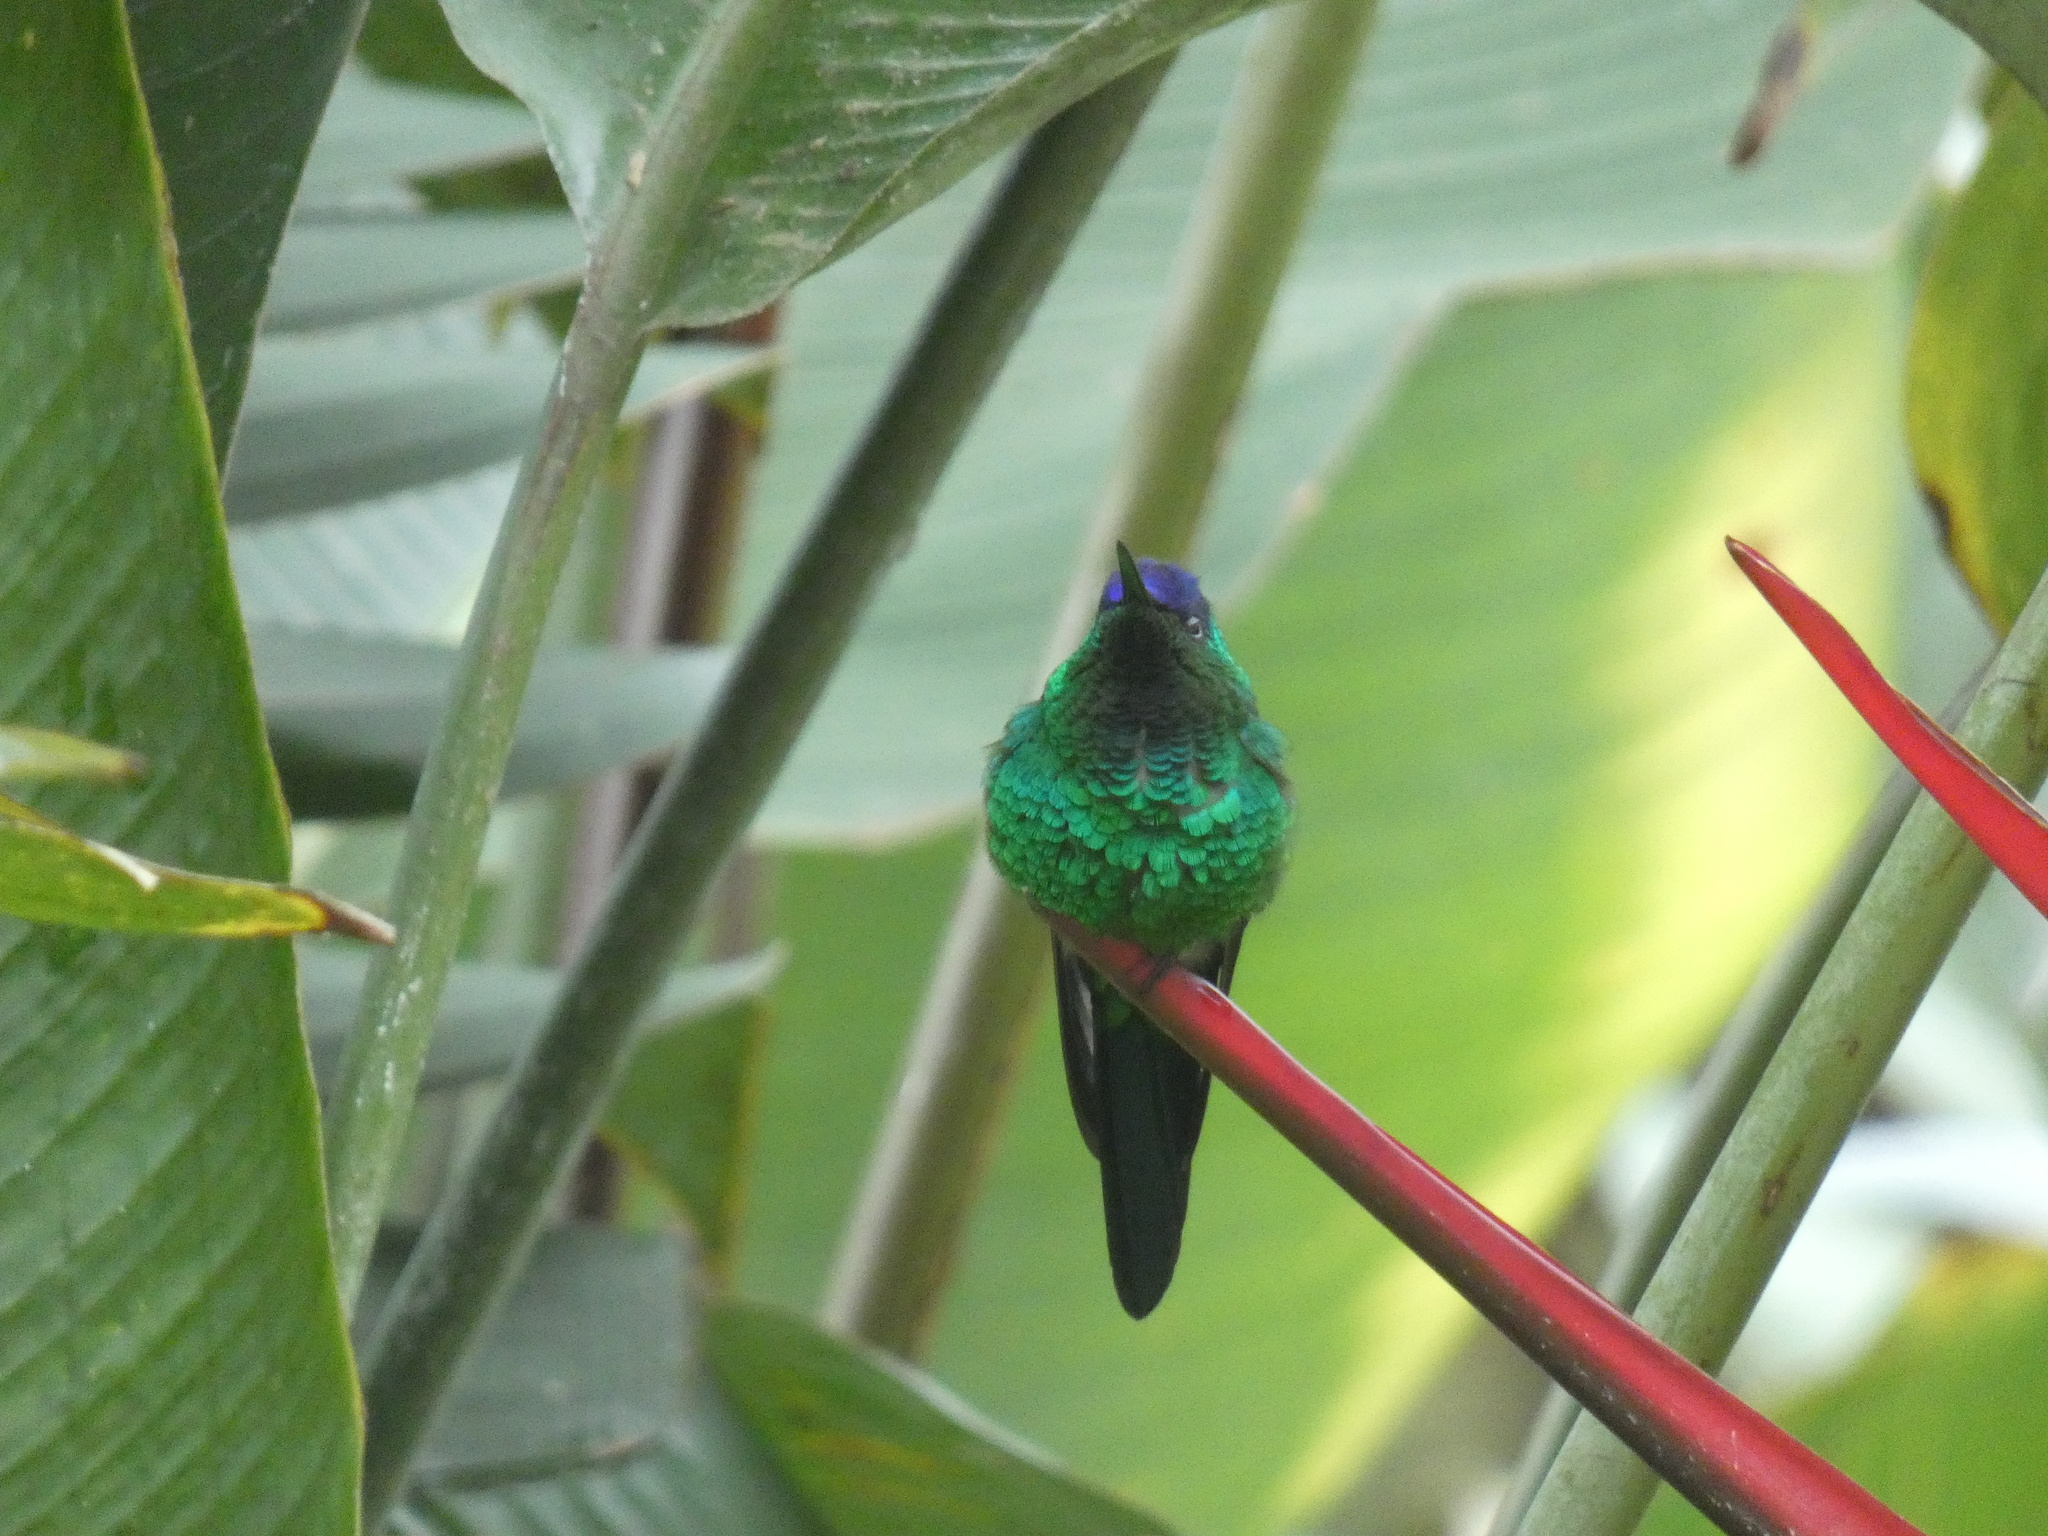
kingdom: Animalia
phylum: Chordata
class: Aves
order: Apodiformes
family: Trochilidae
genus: Thalurania
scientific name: Thalurania glaucopis
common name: Violet-capped woodnymph
